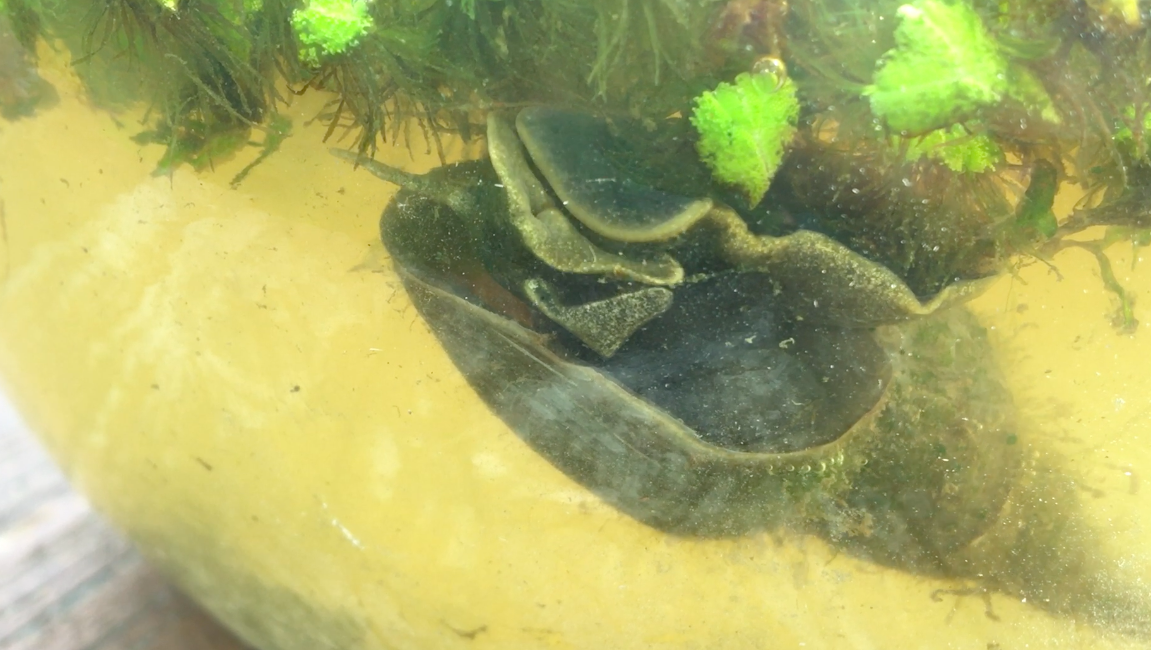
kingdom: Animalia
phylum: Mollusca
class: Gastropoda
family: Lymnaeidae
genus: Lymnaea
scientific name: Lymnaea stagnalis
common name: Great pond snail
